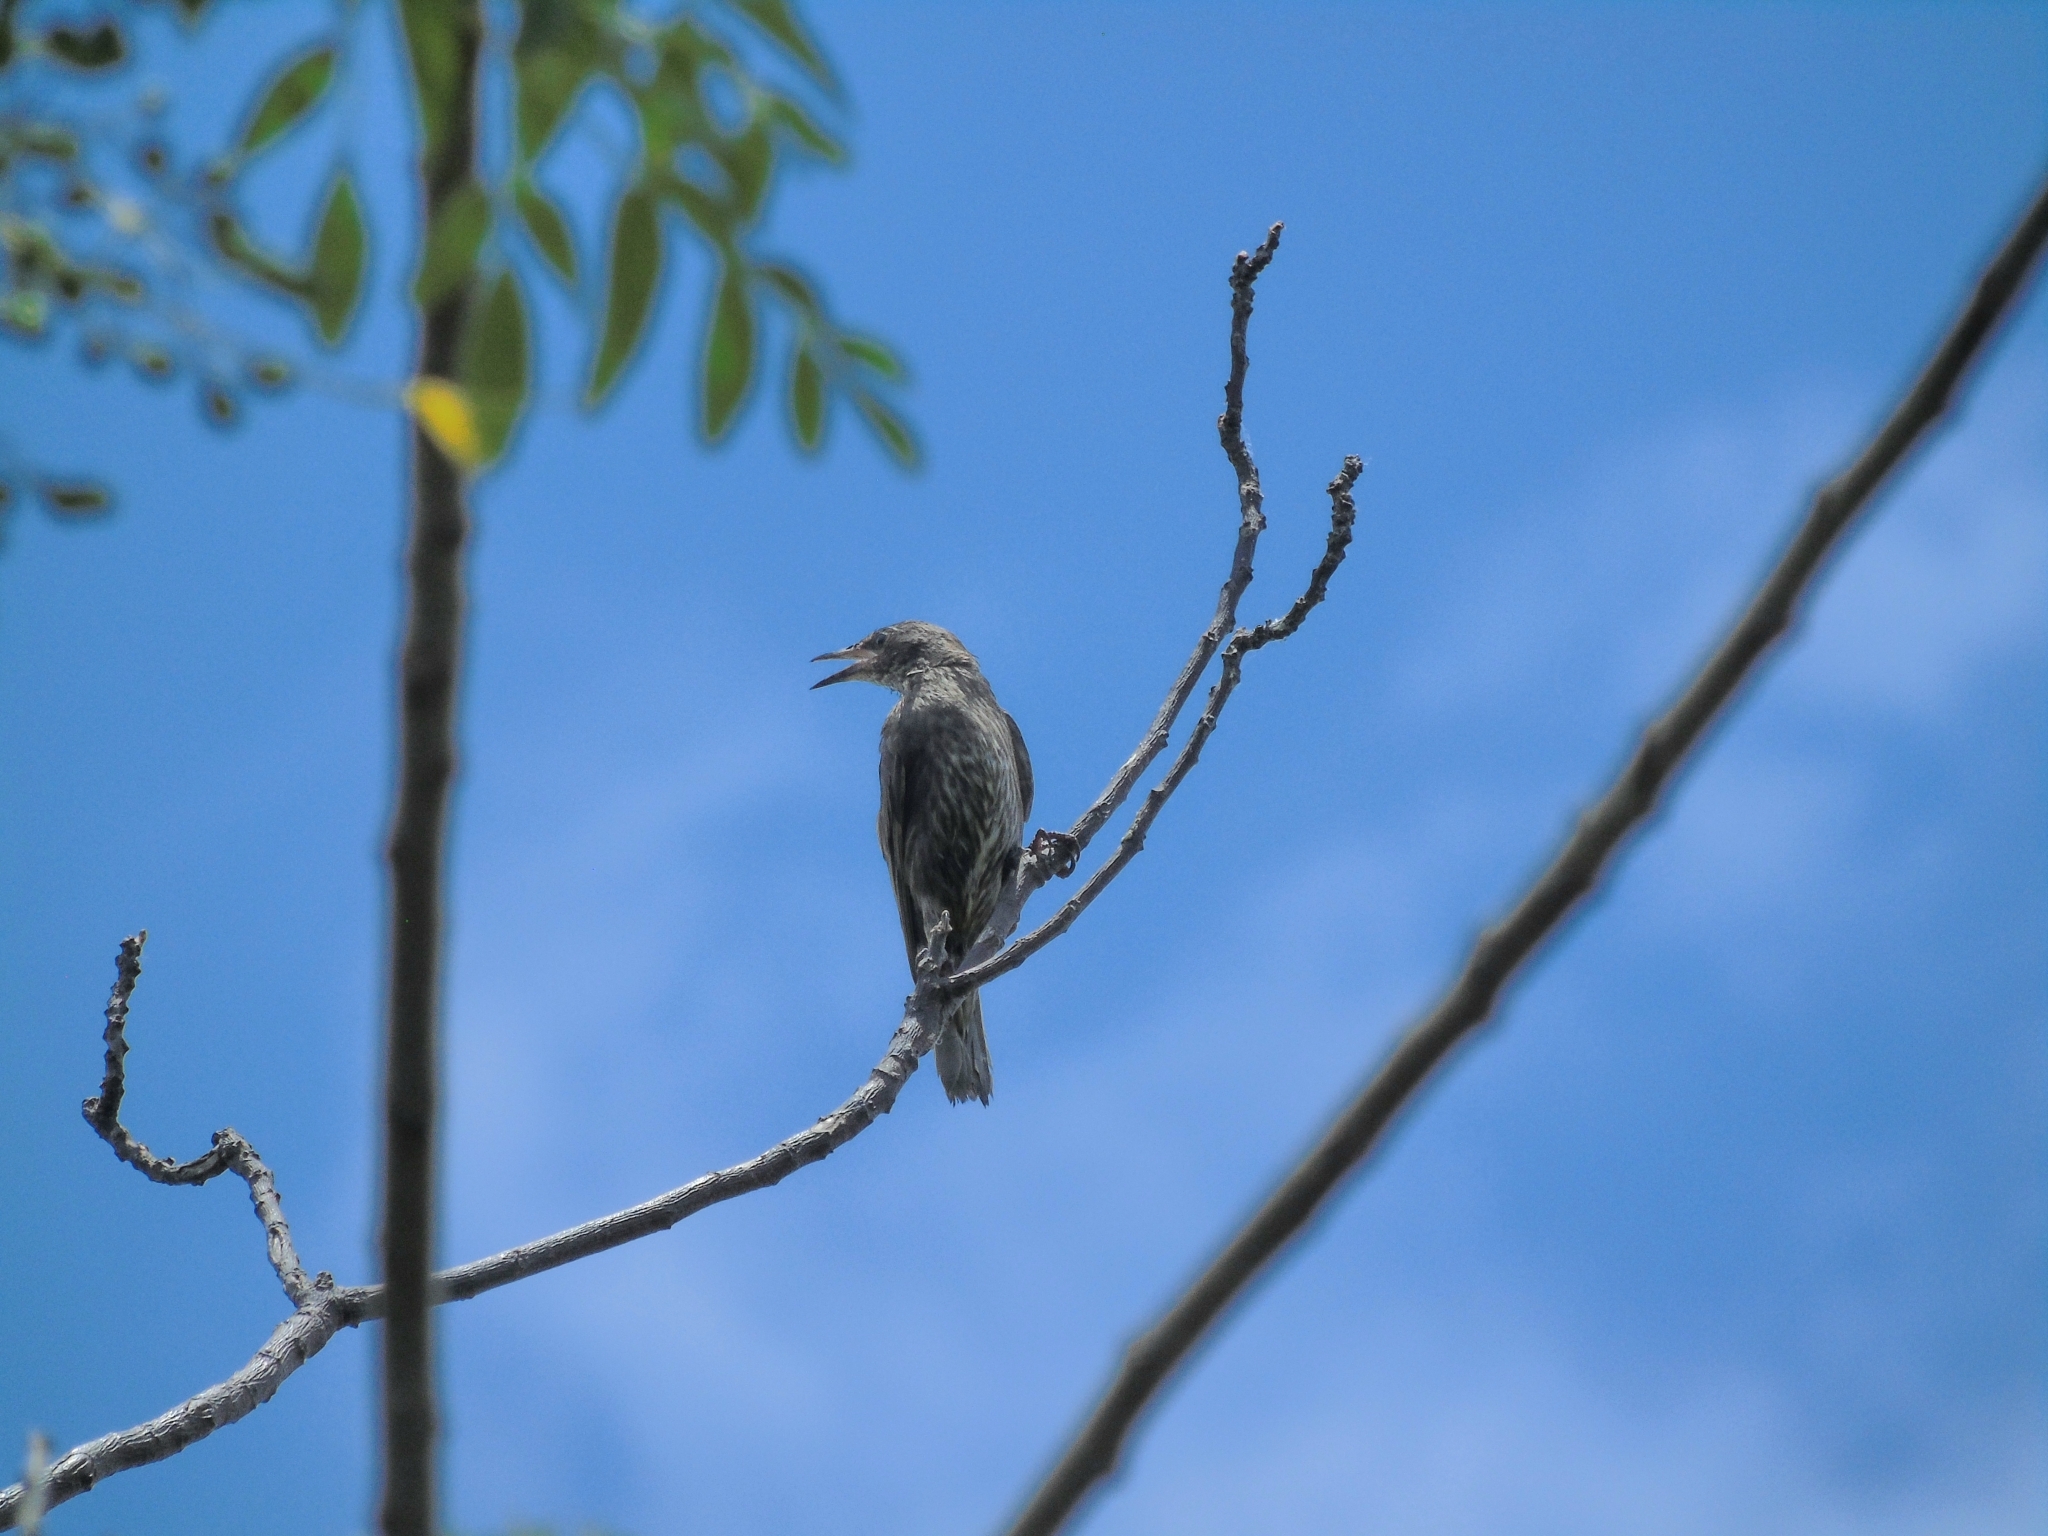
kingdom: Animalia
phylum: Chordata
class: Aves
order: Passeriformes
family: Sturnidae
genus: Sturnus
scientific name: Sturnus vulgaris
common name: Common starling
